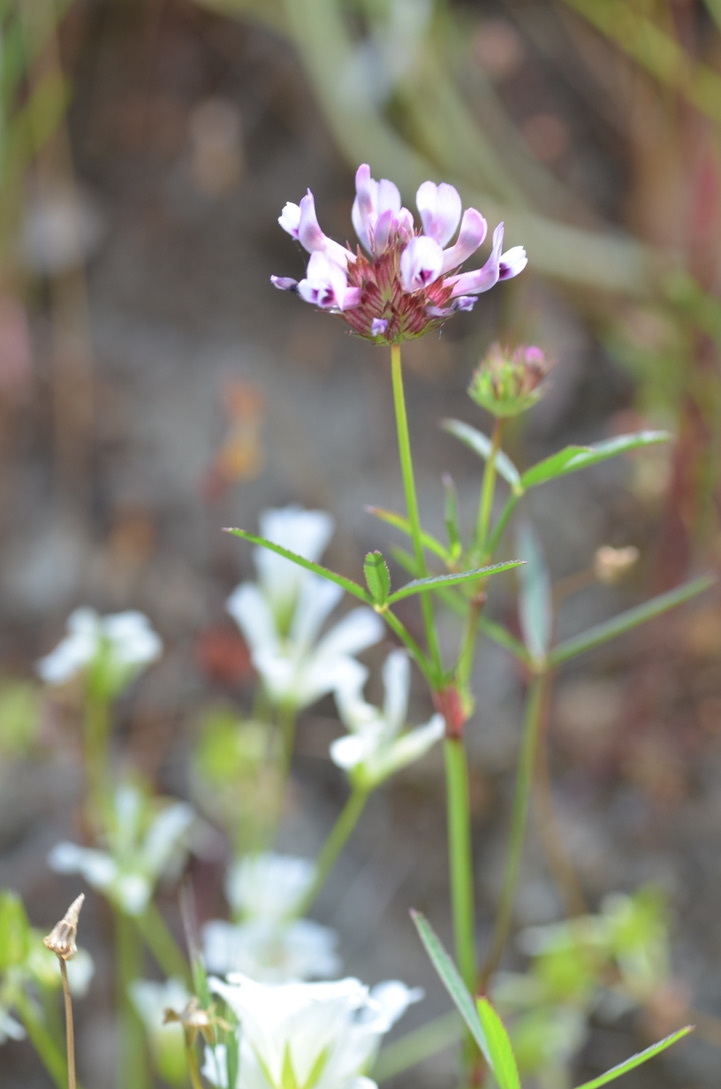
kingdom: Plantae
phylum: Tracheophyta
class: Magnoliopsida
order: Fabales
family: Fabaceae
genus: Trifolium
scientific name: Trifolium willdenovii
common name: Tomcat clover
